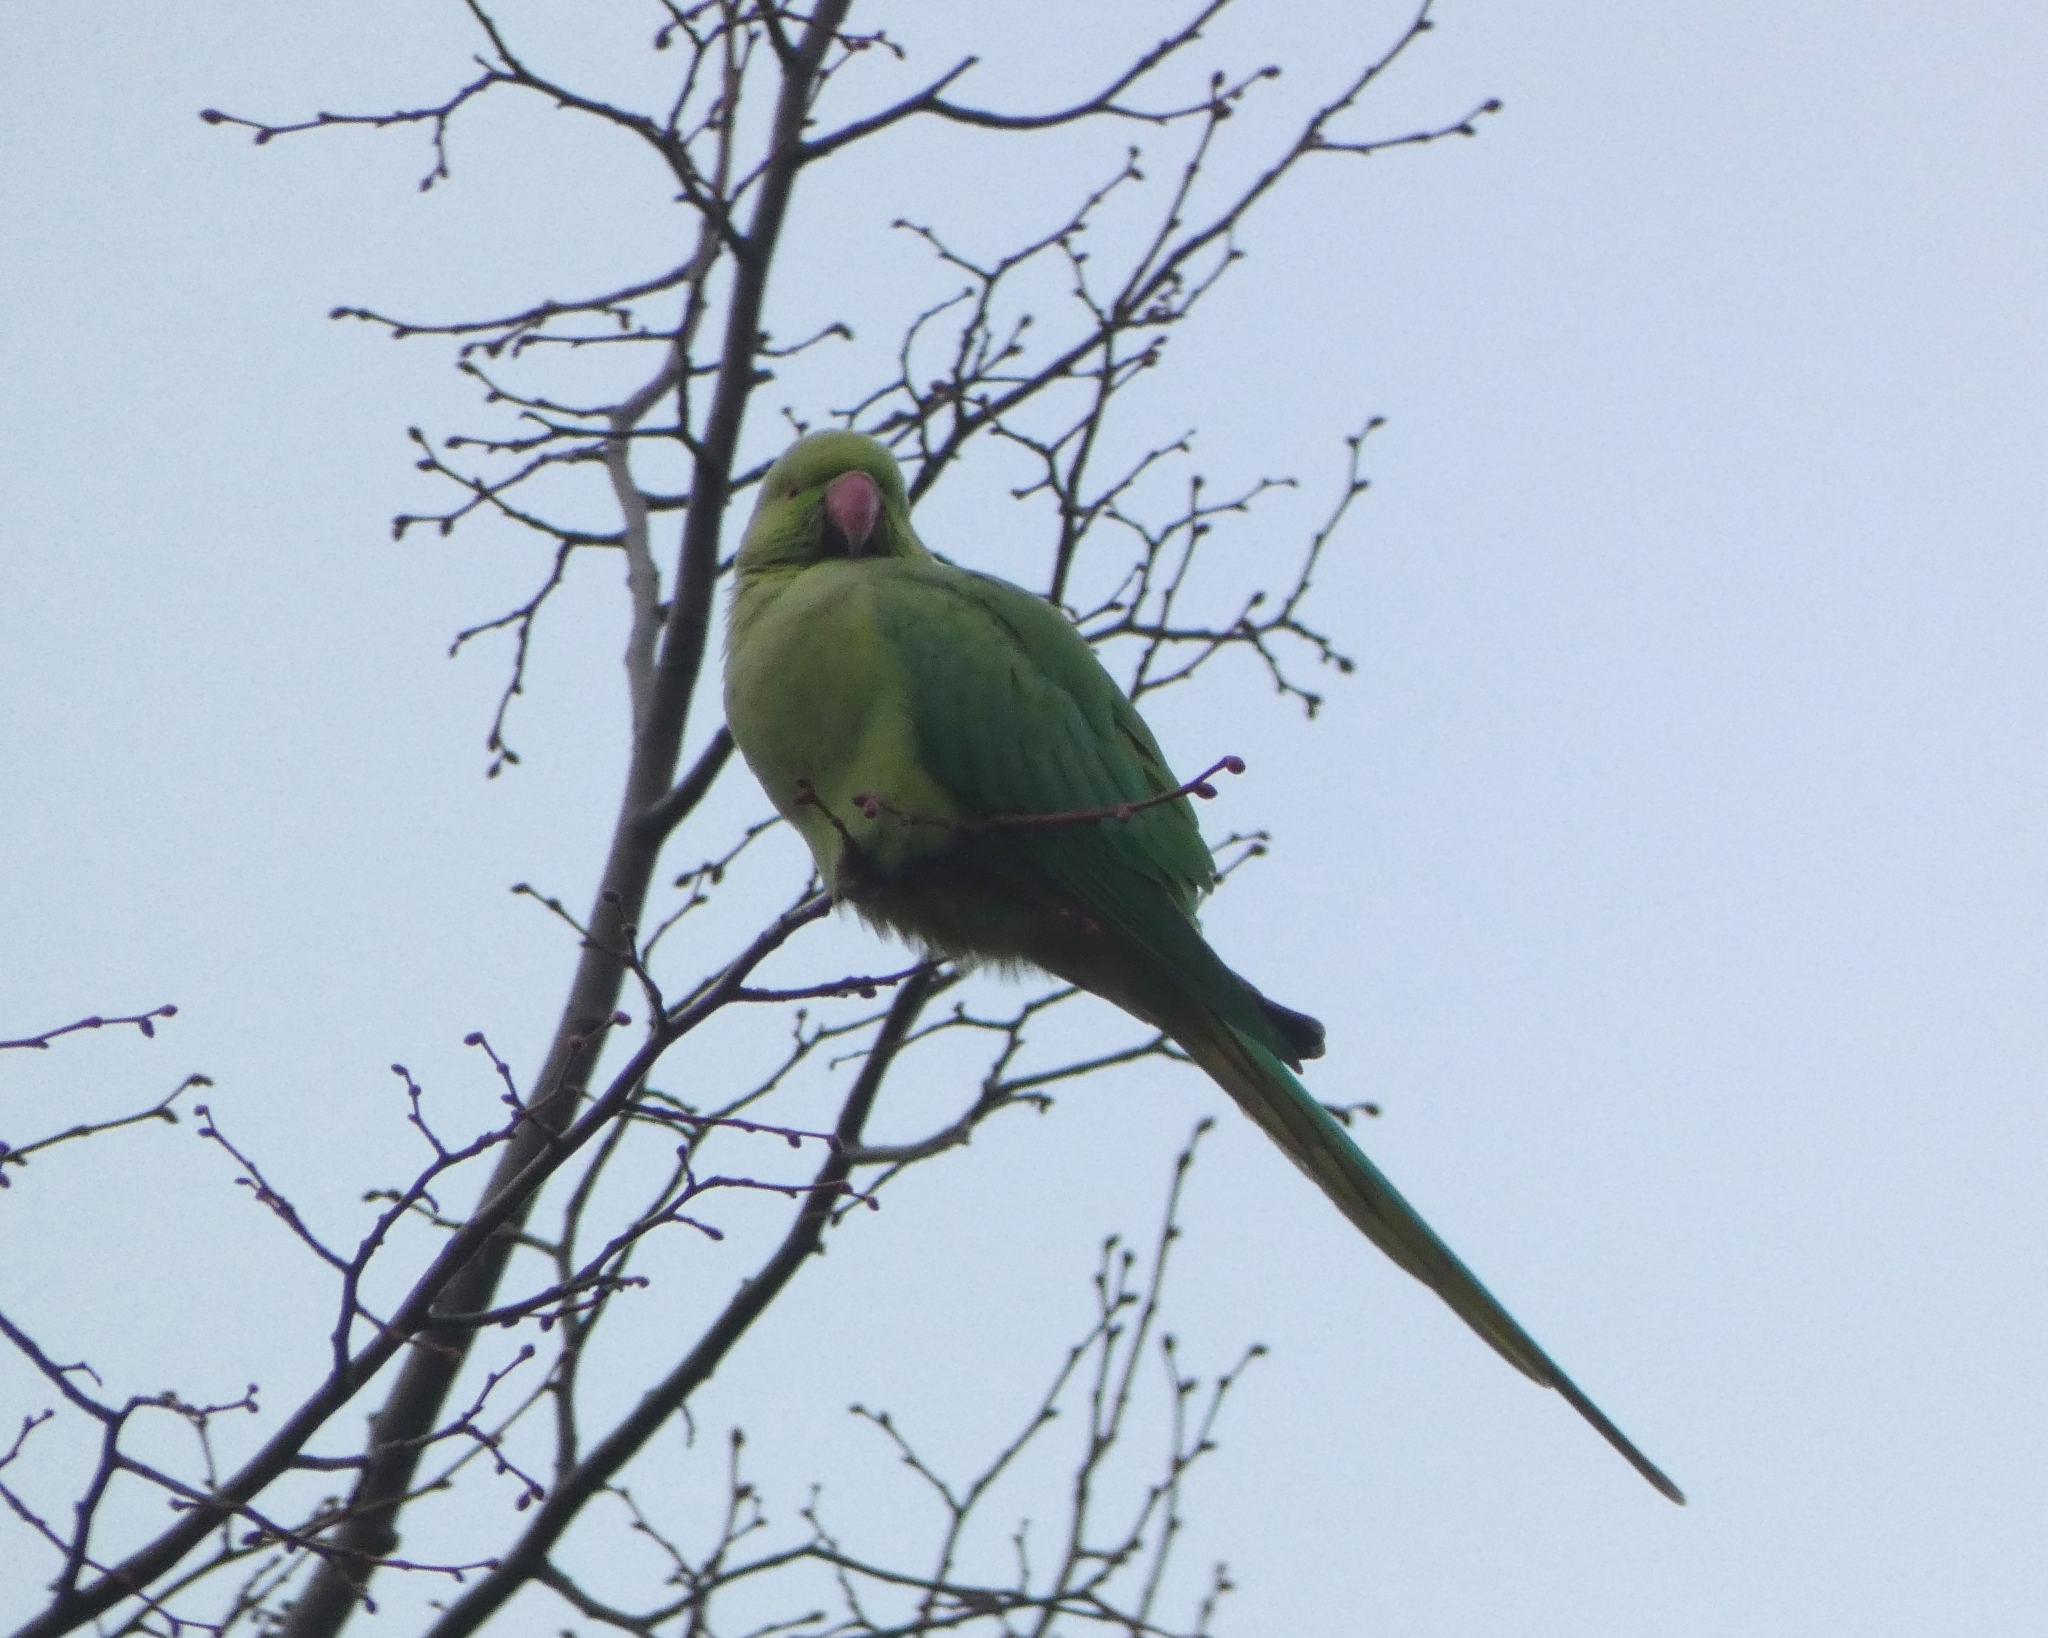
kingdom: Animalia
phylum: Chordata
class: Aves
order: Psittaciformes
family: Psittacidae
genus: Psittacula
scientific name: Psittacula krameri
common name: Rose-ringed parakeet
